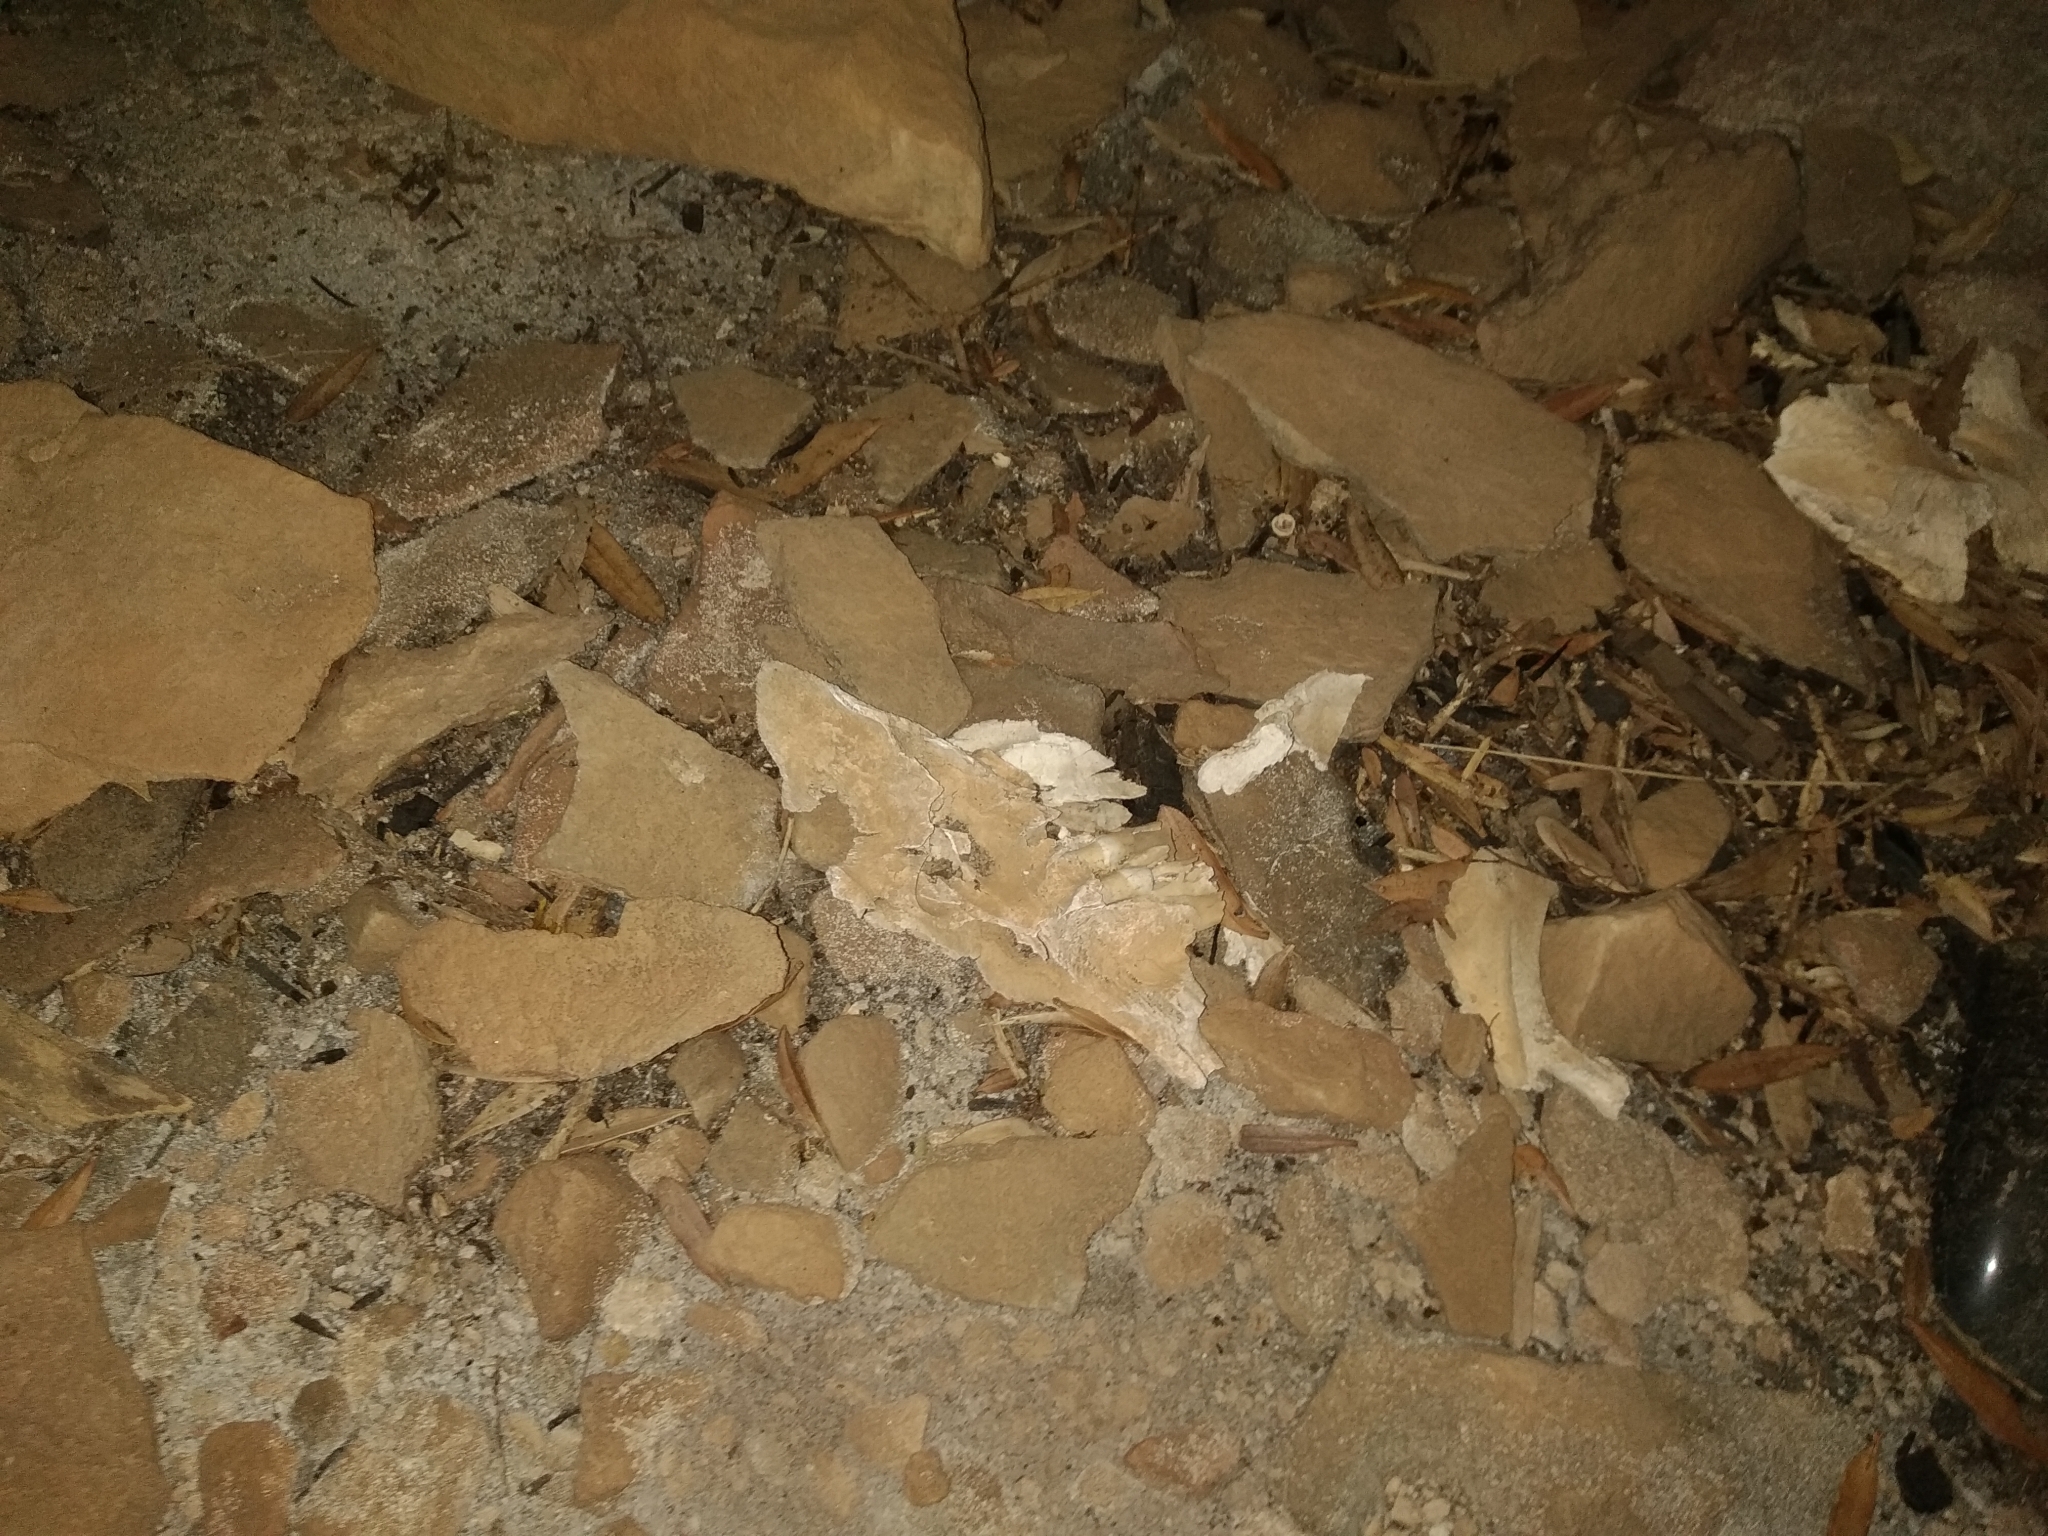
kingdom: Animalia
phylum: Chordata
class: Mammalia
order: Artiodactyla
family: Bovidae
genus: Hemitragus
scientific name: Hemitragus jemlahicus
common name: Himalayan tahr
